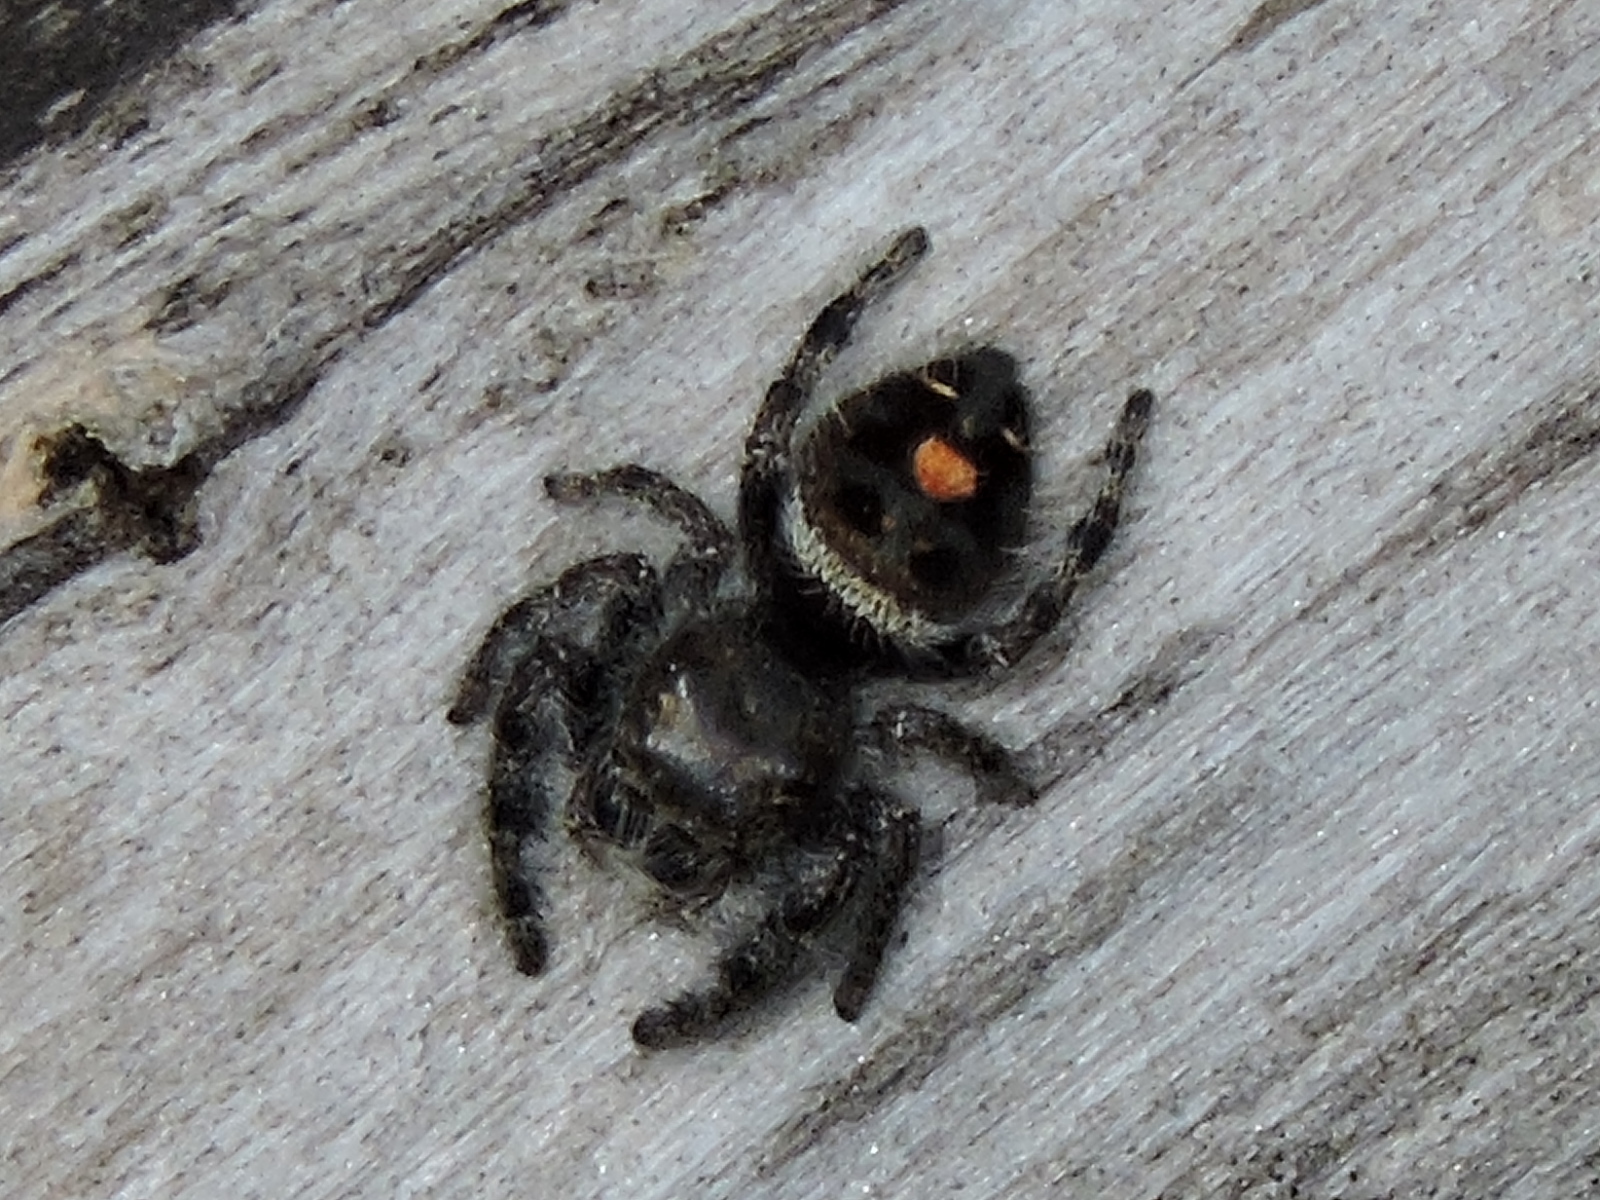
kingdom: Animalia
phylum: Arthropoda
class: Arachnida
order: Araneae
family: Salticidae
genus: Phidippus
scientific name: Phidippus audax
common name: Bold jumper
